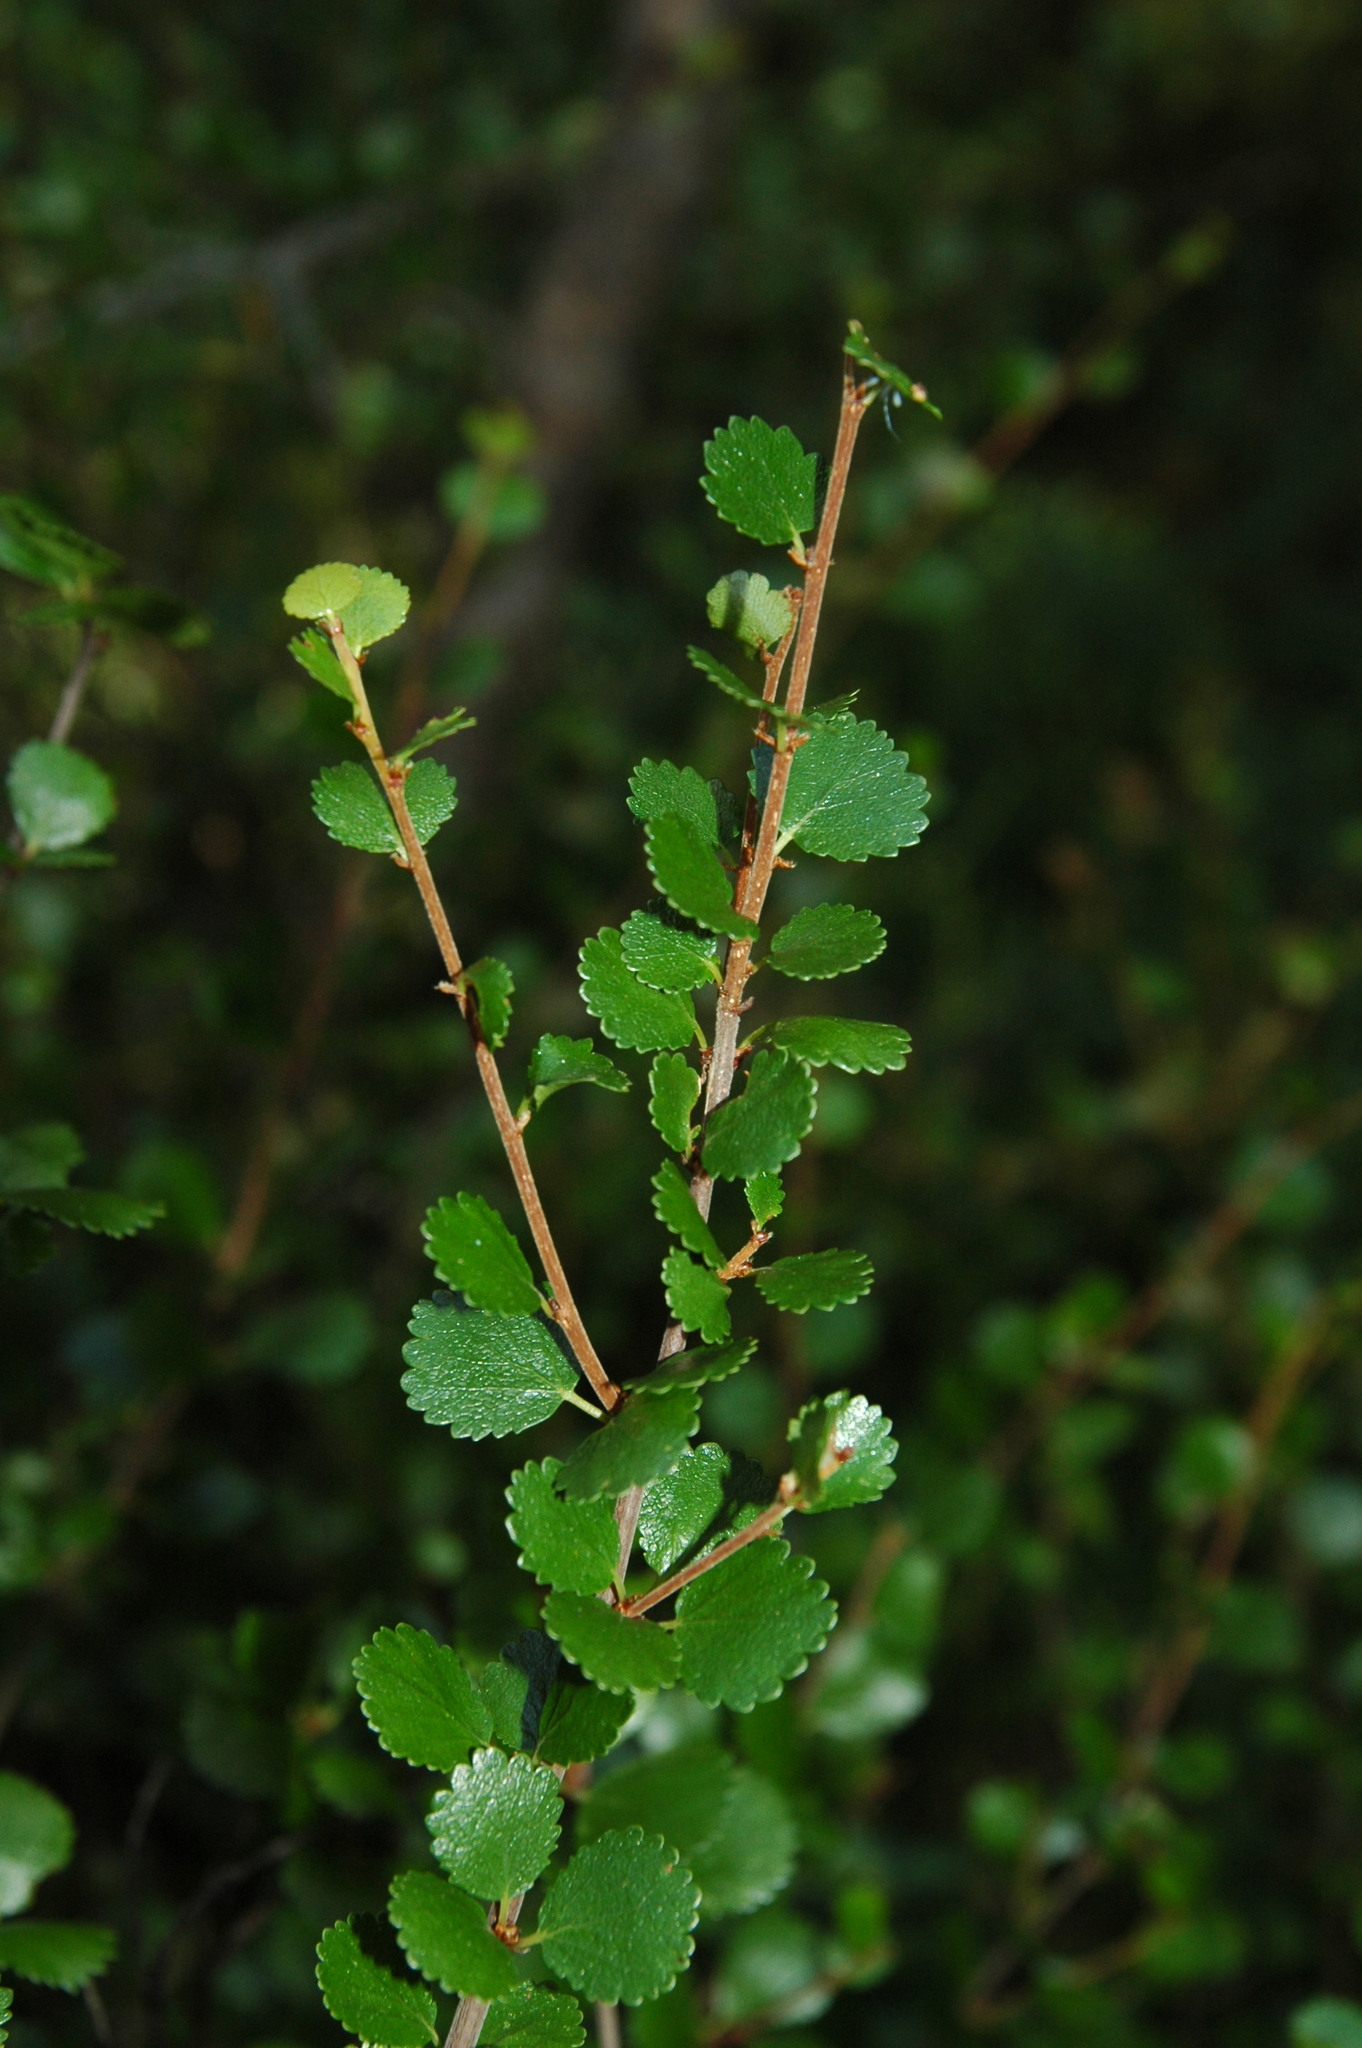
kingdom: Plantae
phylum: Tracheophyta
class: Magnoliopsida
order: Fagales
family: Betulaceae
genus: Betula
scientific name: Betula nana
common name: Arctic dwarf birch
